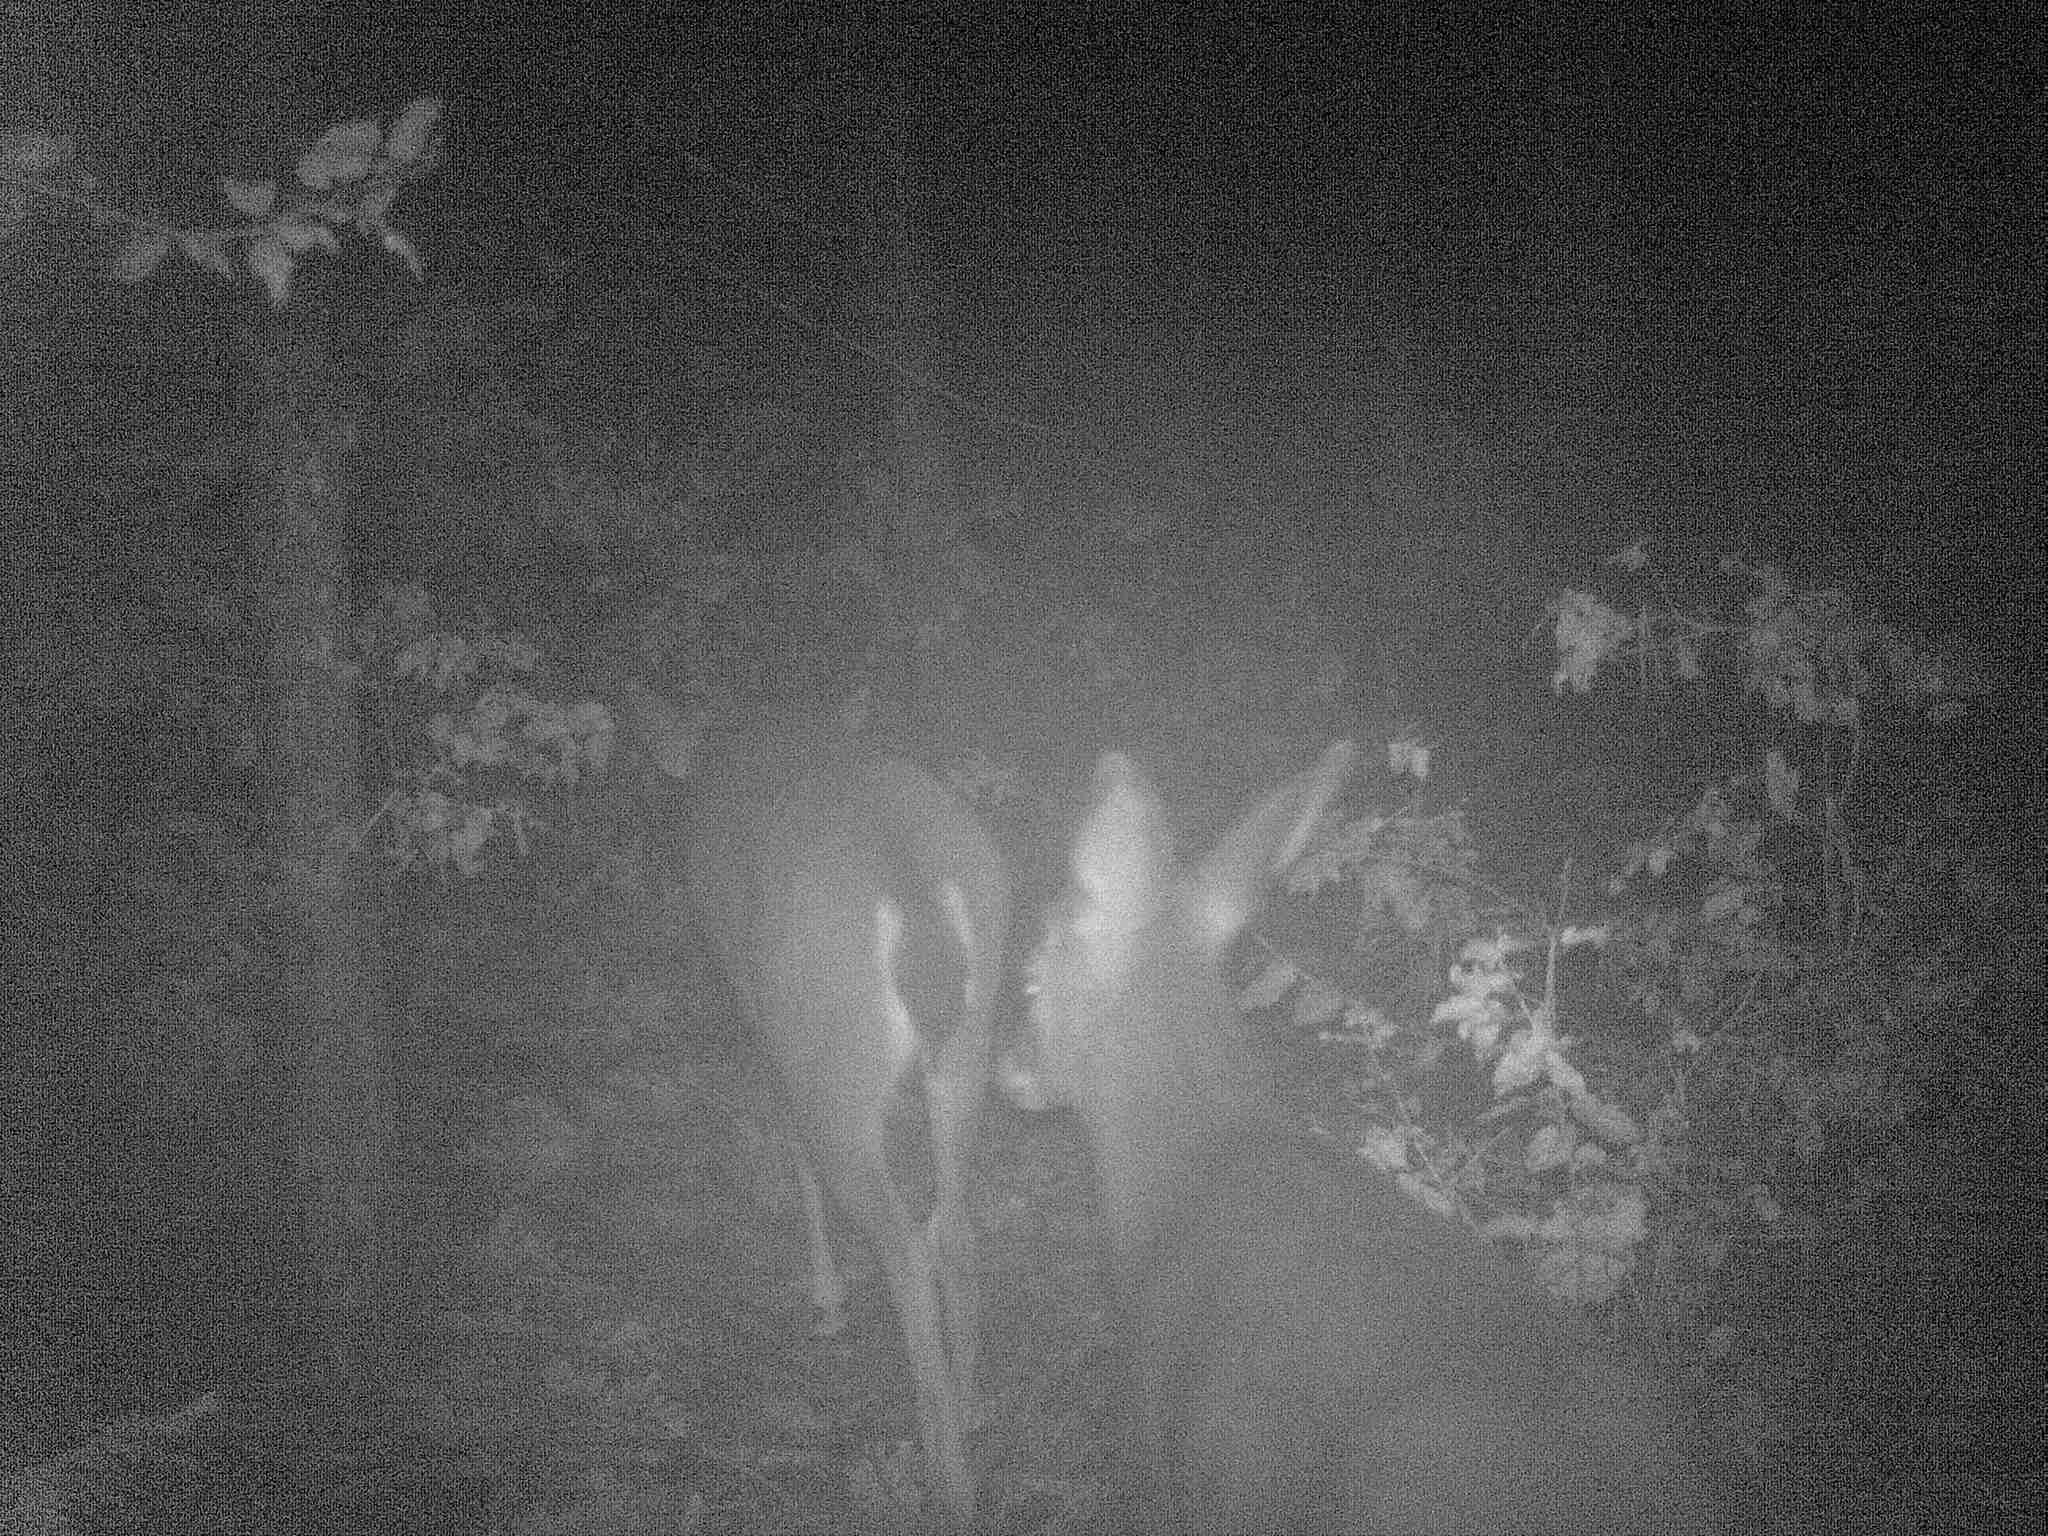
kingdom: Animalia
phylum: Chordata
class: Mammalia
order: Artiodactyla
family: Cervidae
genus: Odocoileus
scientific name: Odocoileus hemionus
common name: Mule deer
